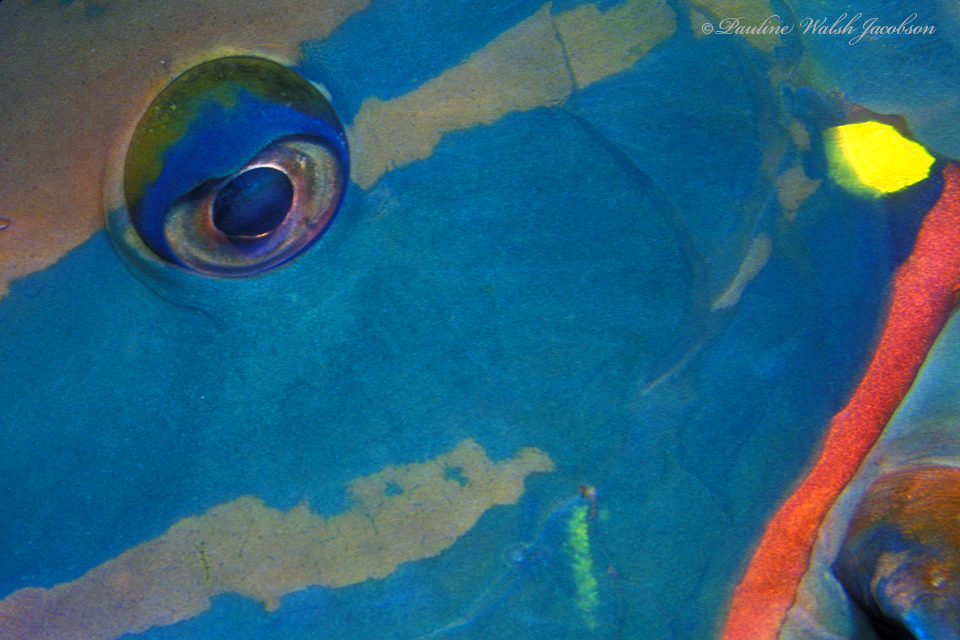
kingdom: Animalia
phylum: Chordata
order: Perciformes
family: Scaridae
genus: Sparisoma
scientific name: Sparisoma viride
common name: Stoplight parrotfish
